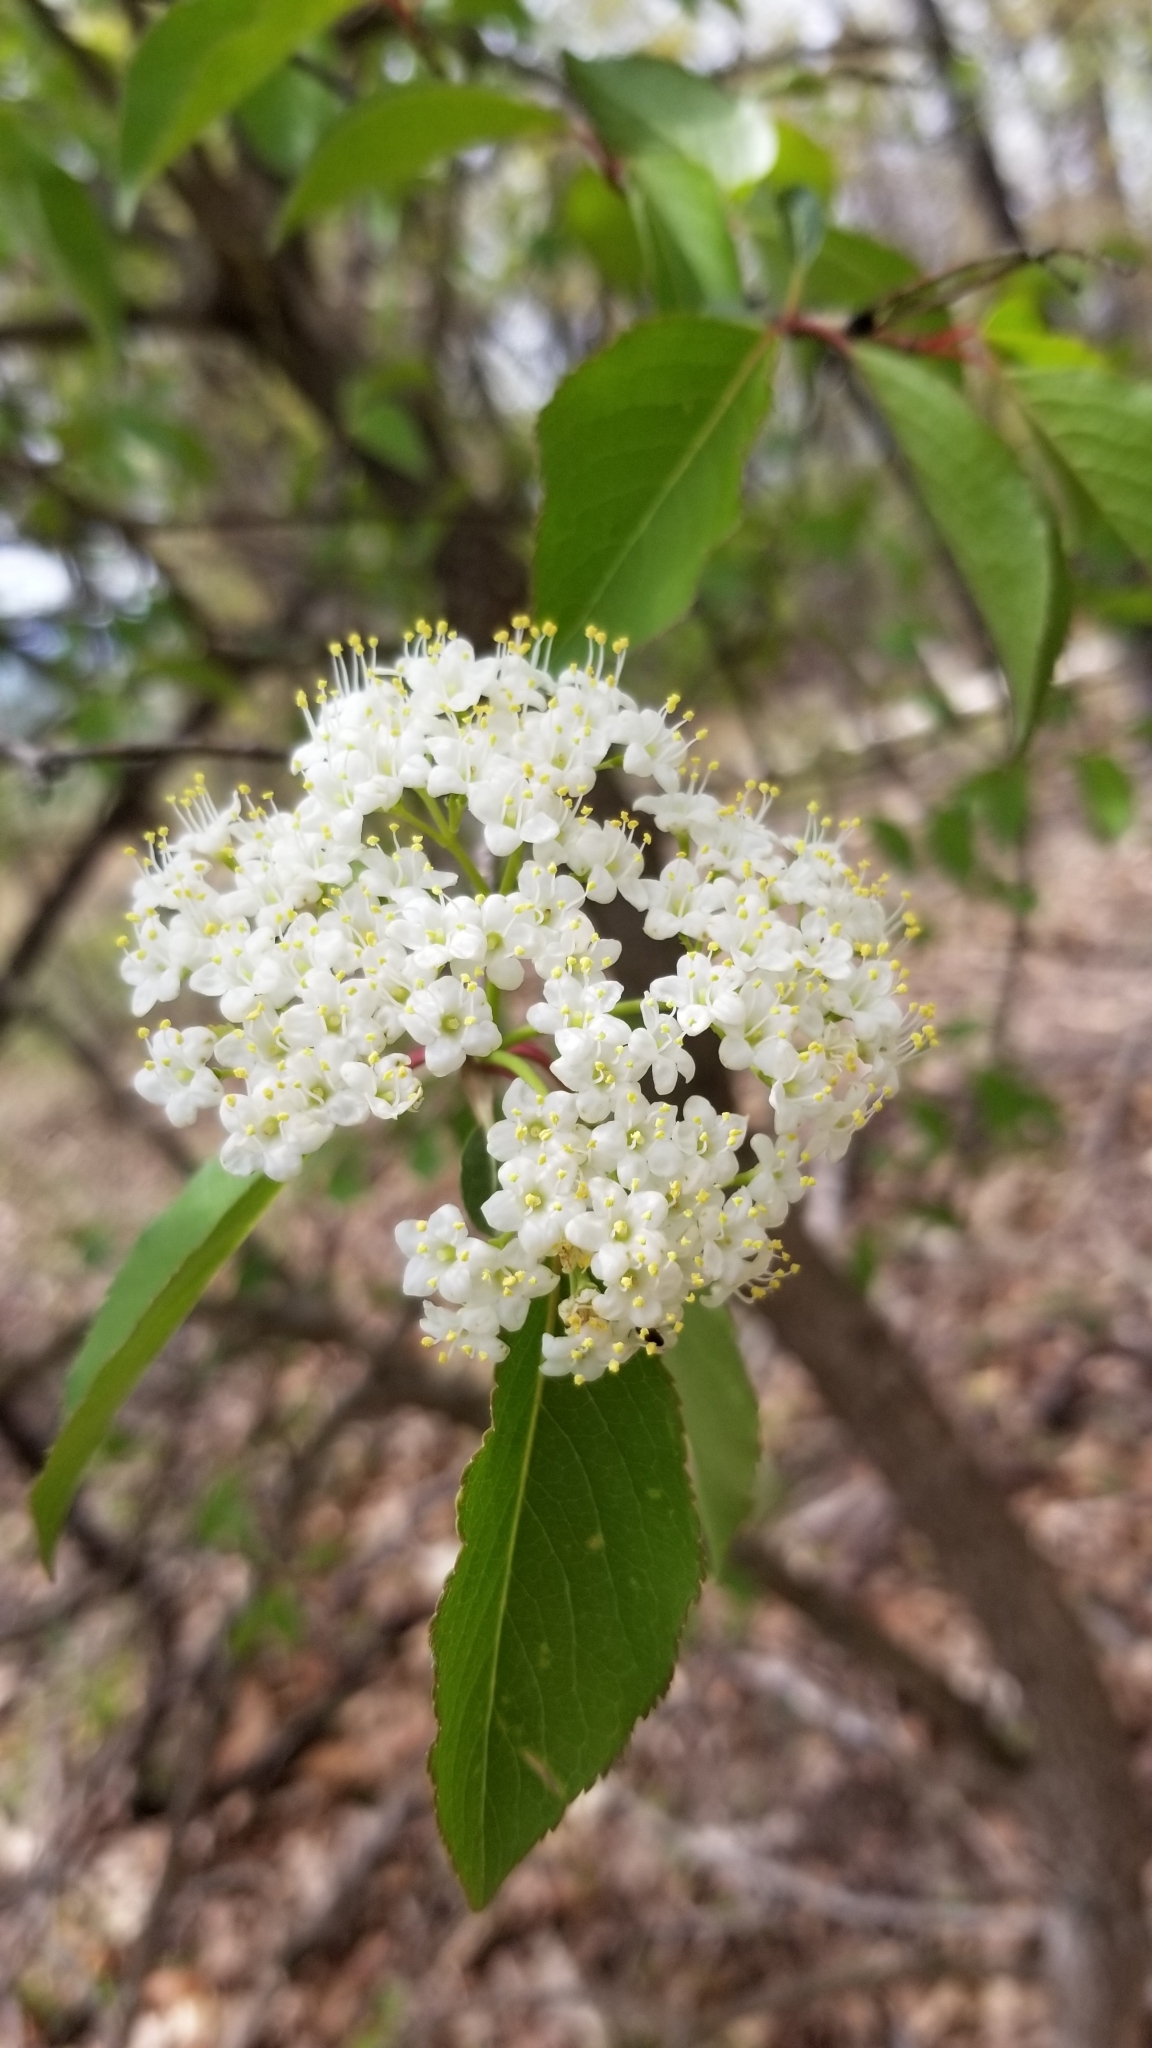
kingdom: Plantae
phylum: Tracheophyta
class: Magnoliopsida
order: Dipsacales
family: Viburnaceae
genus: Viburnum
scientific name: Viburnum prunifolium
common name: Black haw
